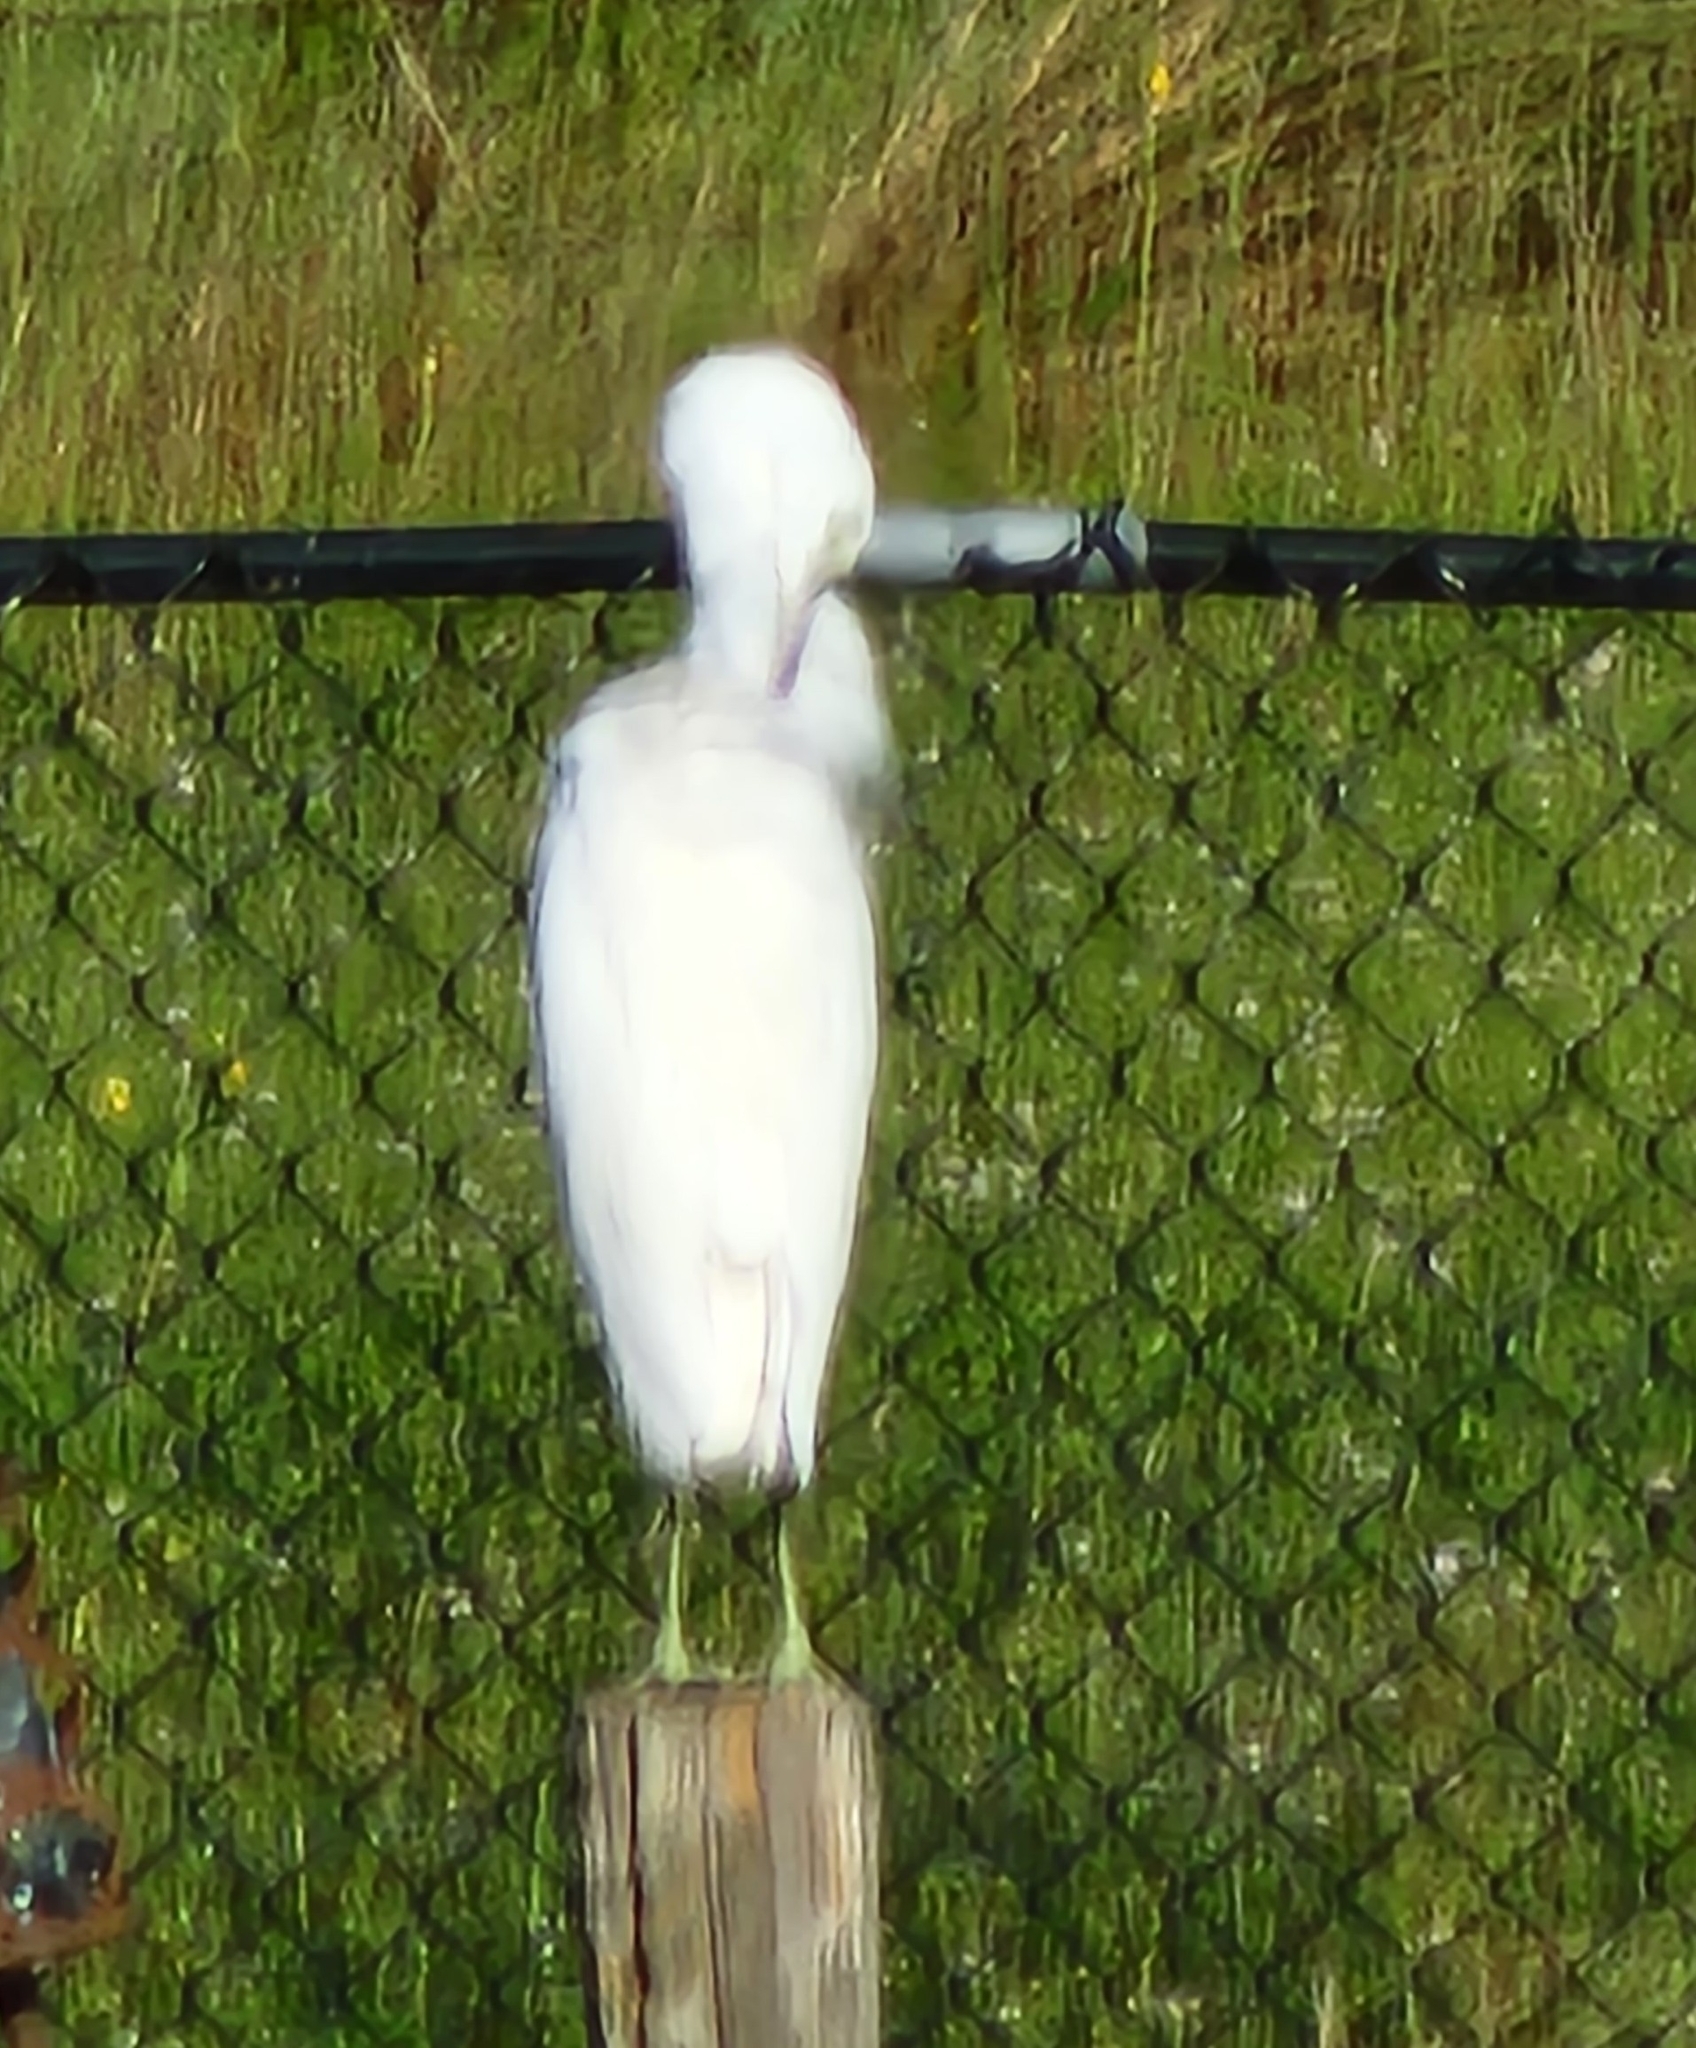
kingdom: Animalia
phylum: Chordata
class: Aves
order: Pelecaniformes
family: Ardeidae
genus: Egretta
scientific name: Egretta thula
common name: Snowy egret
